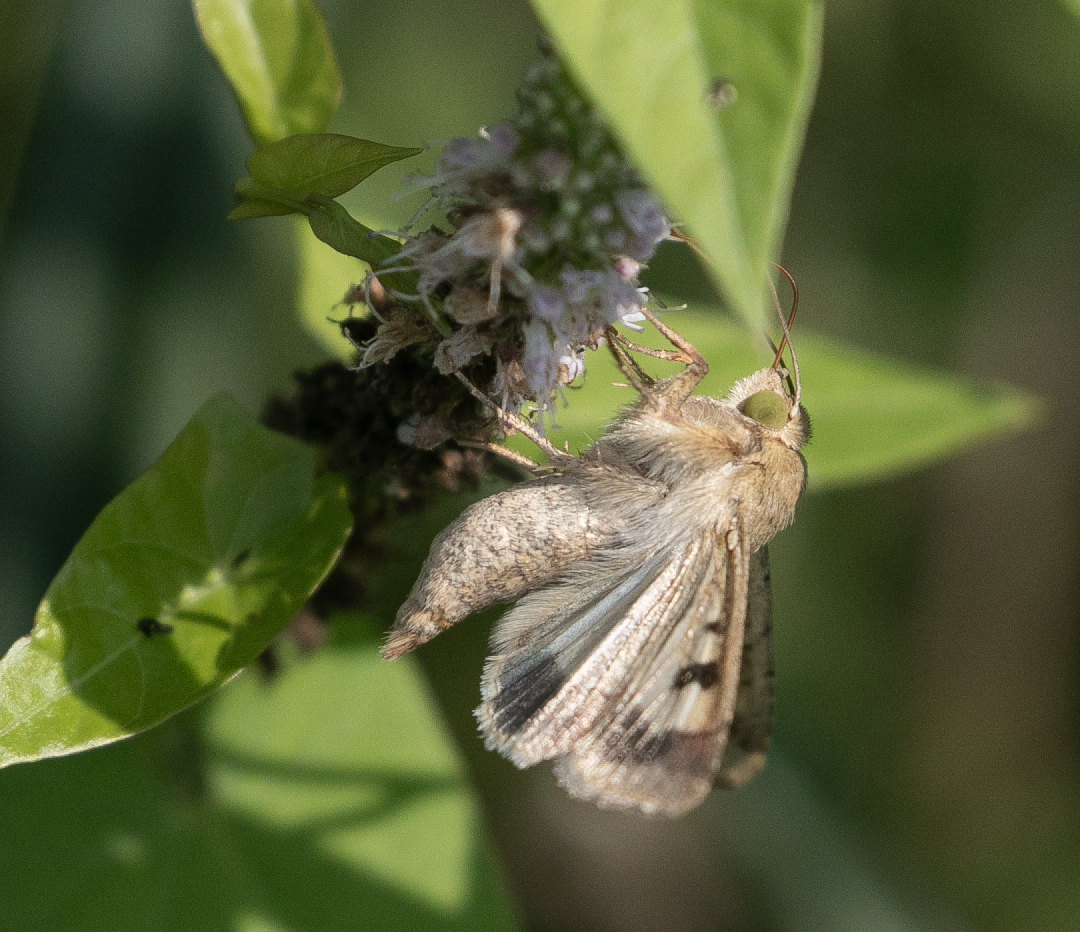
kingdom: Animalia
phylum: Arthropoda
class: Insecta
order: Lepidoptera
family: Noctuidae
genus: Helicoverpa
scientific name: Helicoverpa armigera
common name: Cotton bollworm
